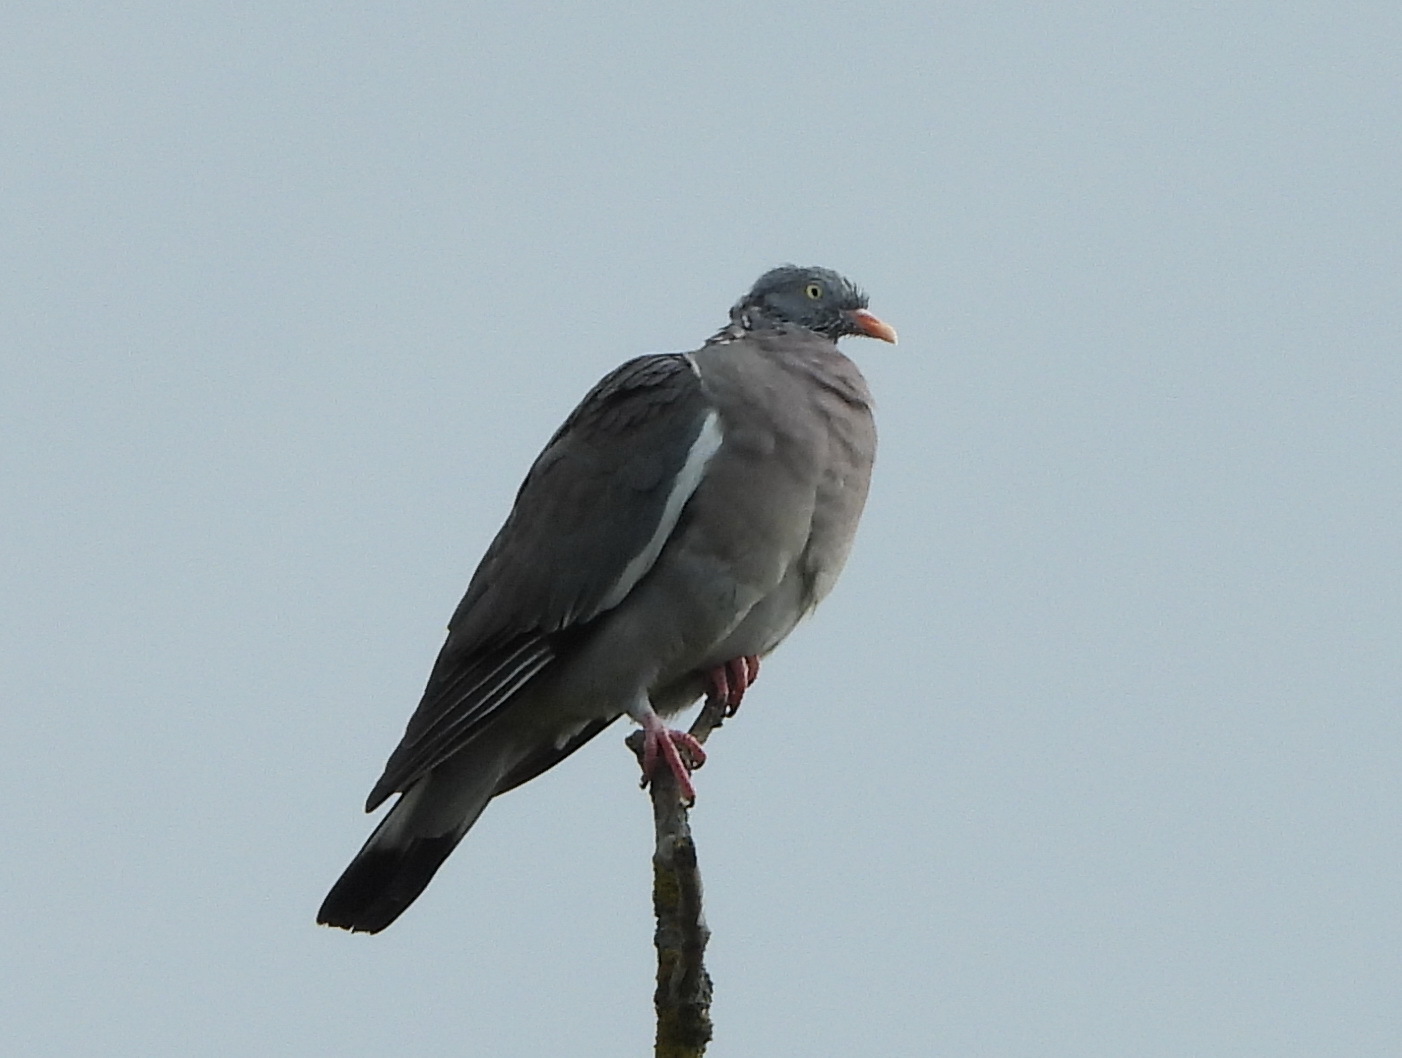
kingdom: Animalia
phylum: Chordata
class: Aves
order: Columbiformes
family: Columbidae
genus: Columba
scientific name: Columba palumbus
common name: Common wood pigeon
